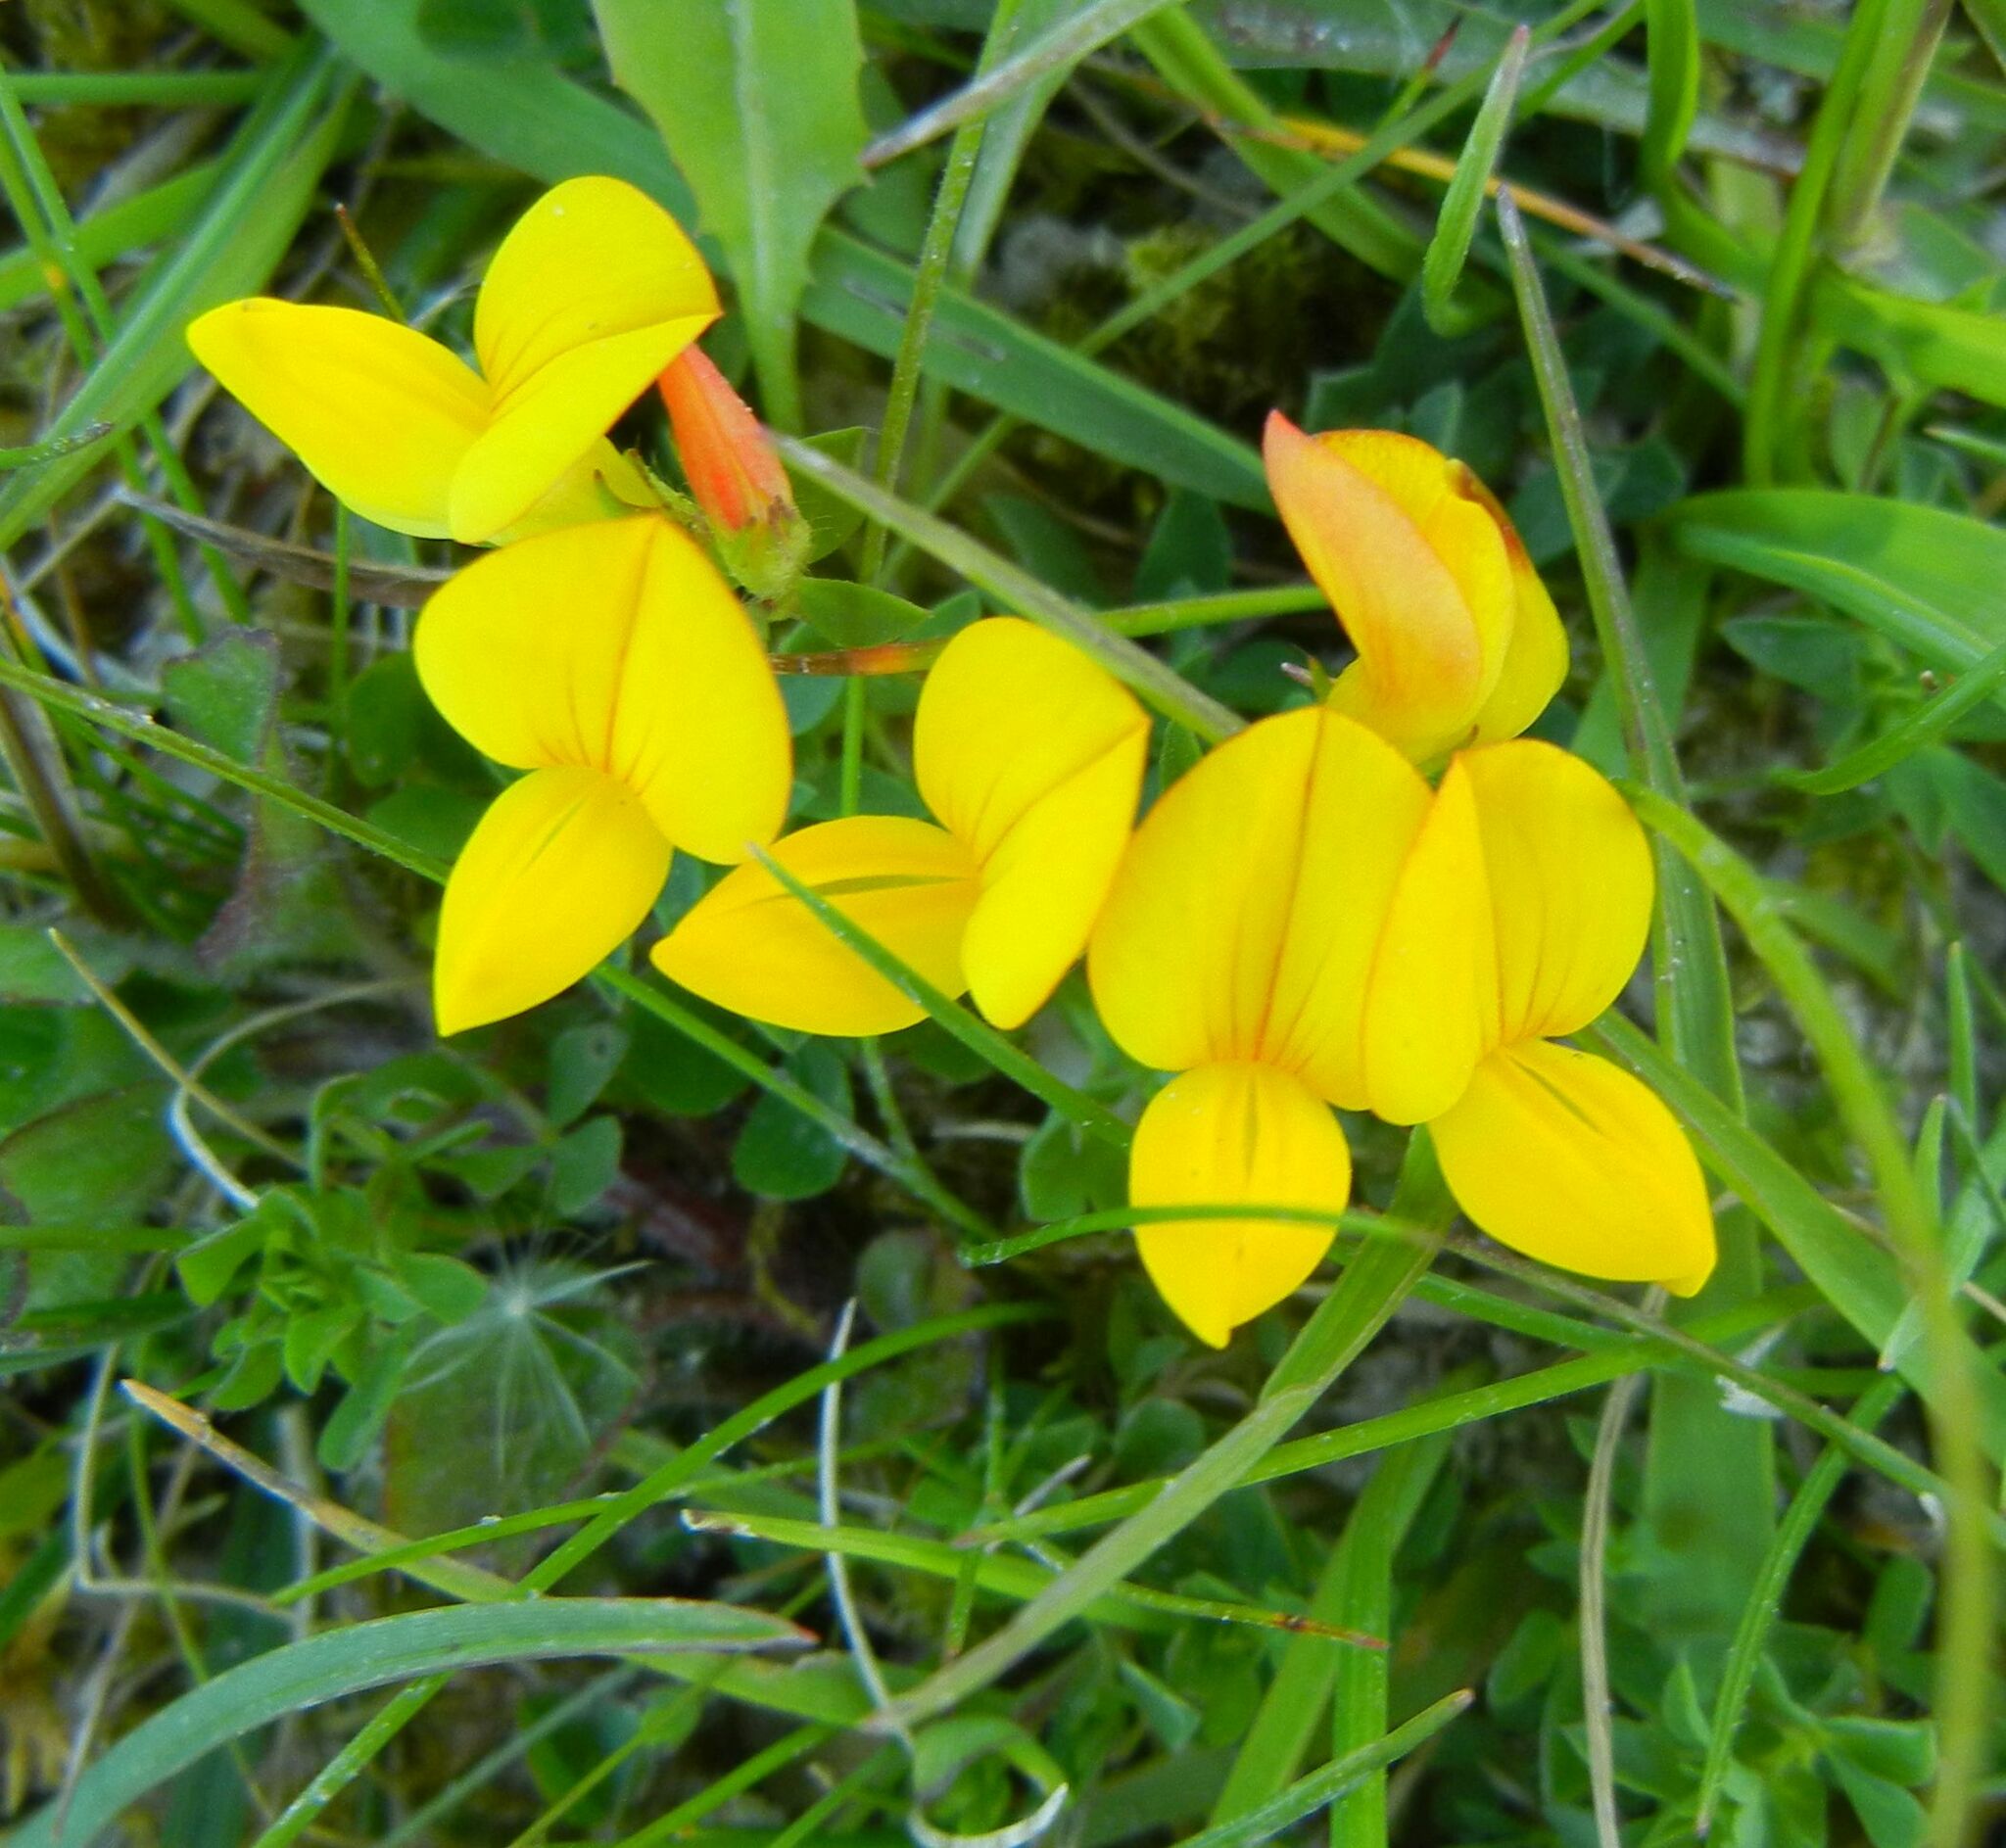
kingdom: Plantae
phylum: Tracheophyta
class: Magnoliopsida
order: Fabales
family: Fabaceae
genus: Lotus
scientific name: Lotus corniculatus
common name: Common bird's-foot-trefoil
